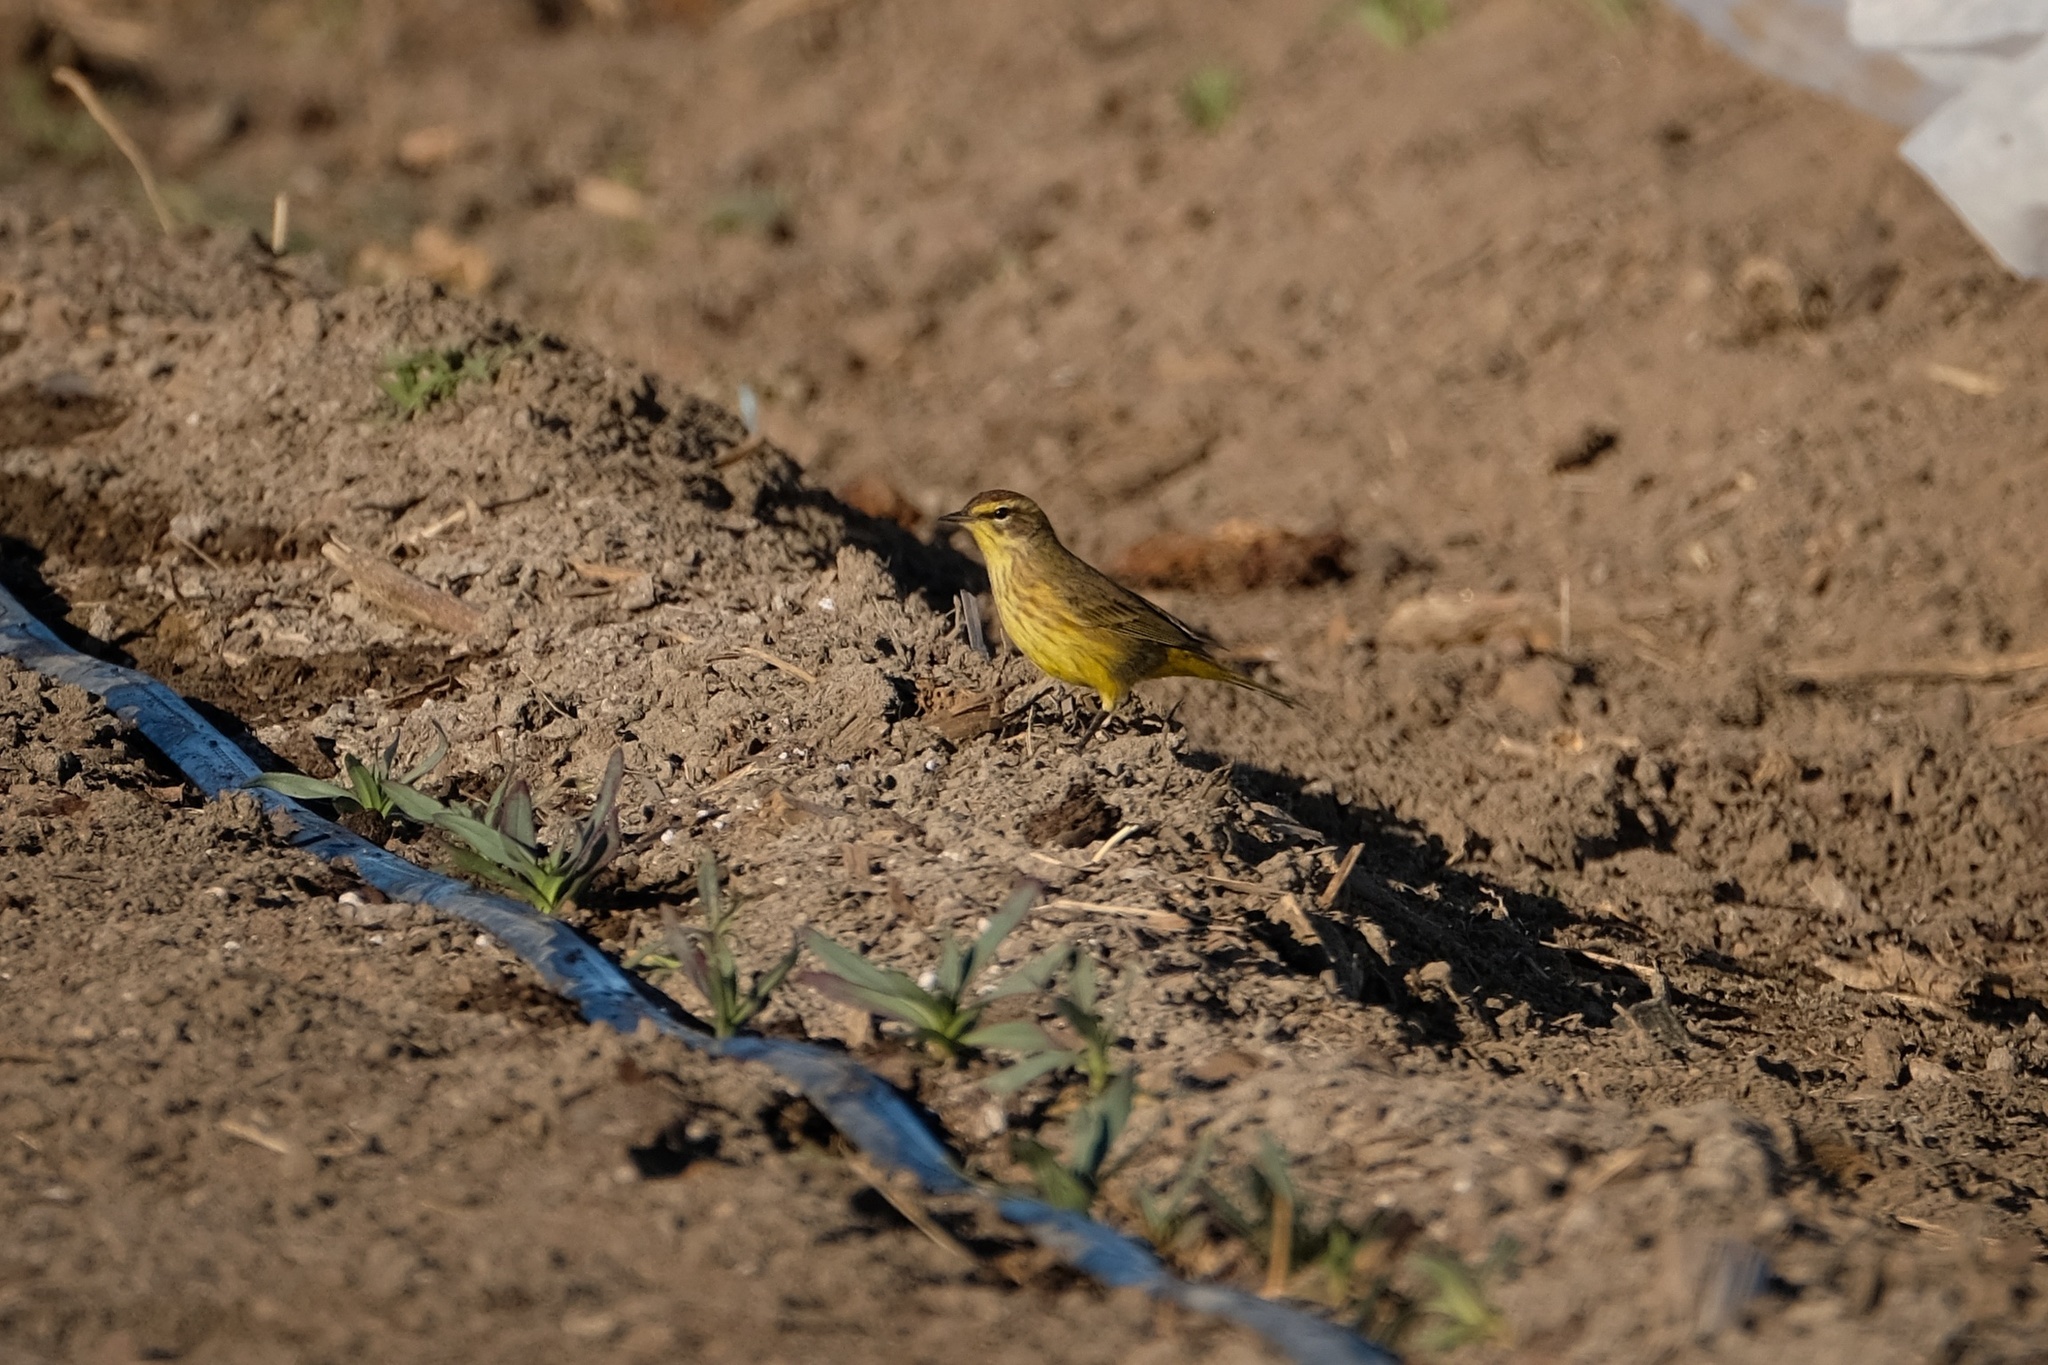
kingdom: Animalia
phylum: Chordata
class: Aves
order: Passeriformes
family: Parulidae
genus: Setophaga
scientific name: Setophaga palmarum
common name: Palm warbler
